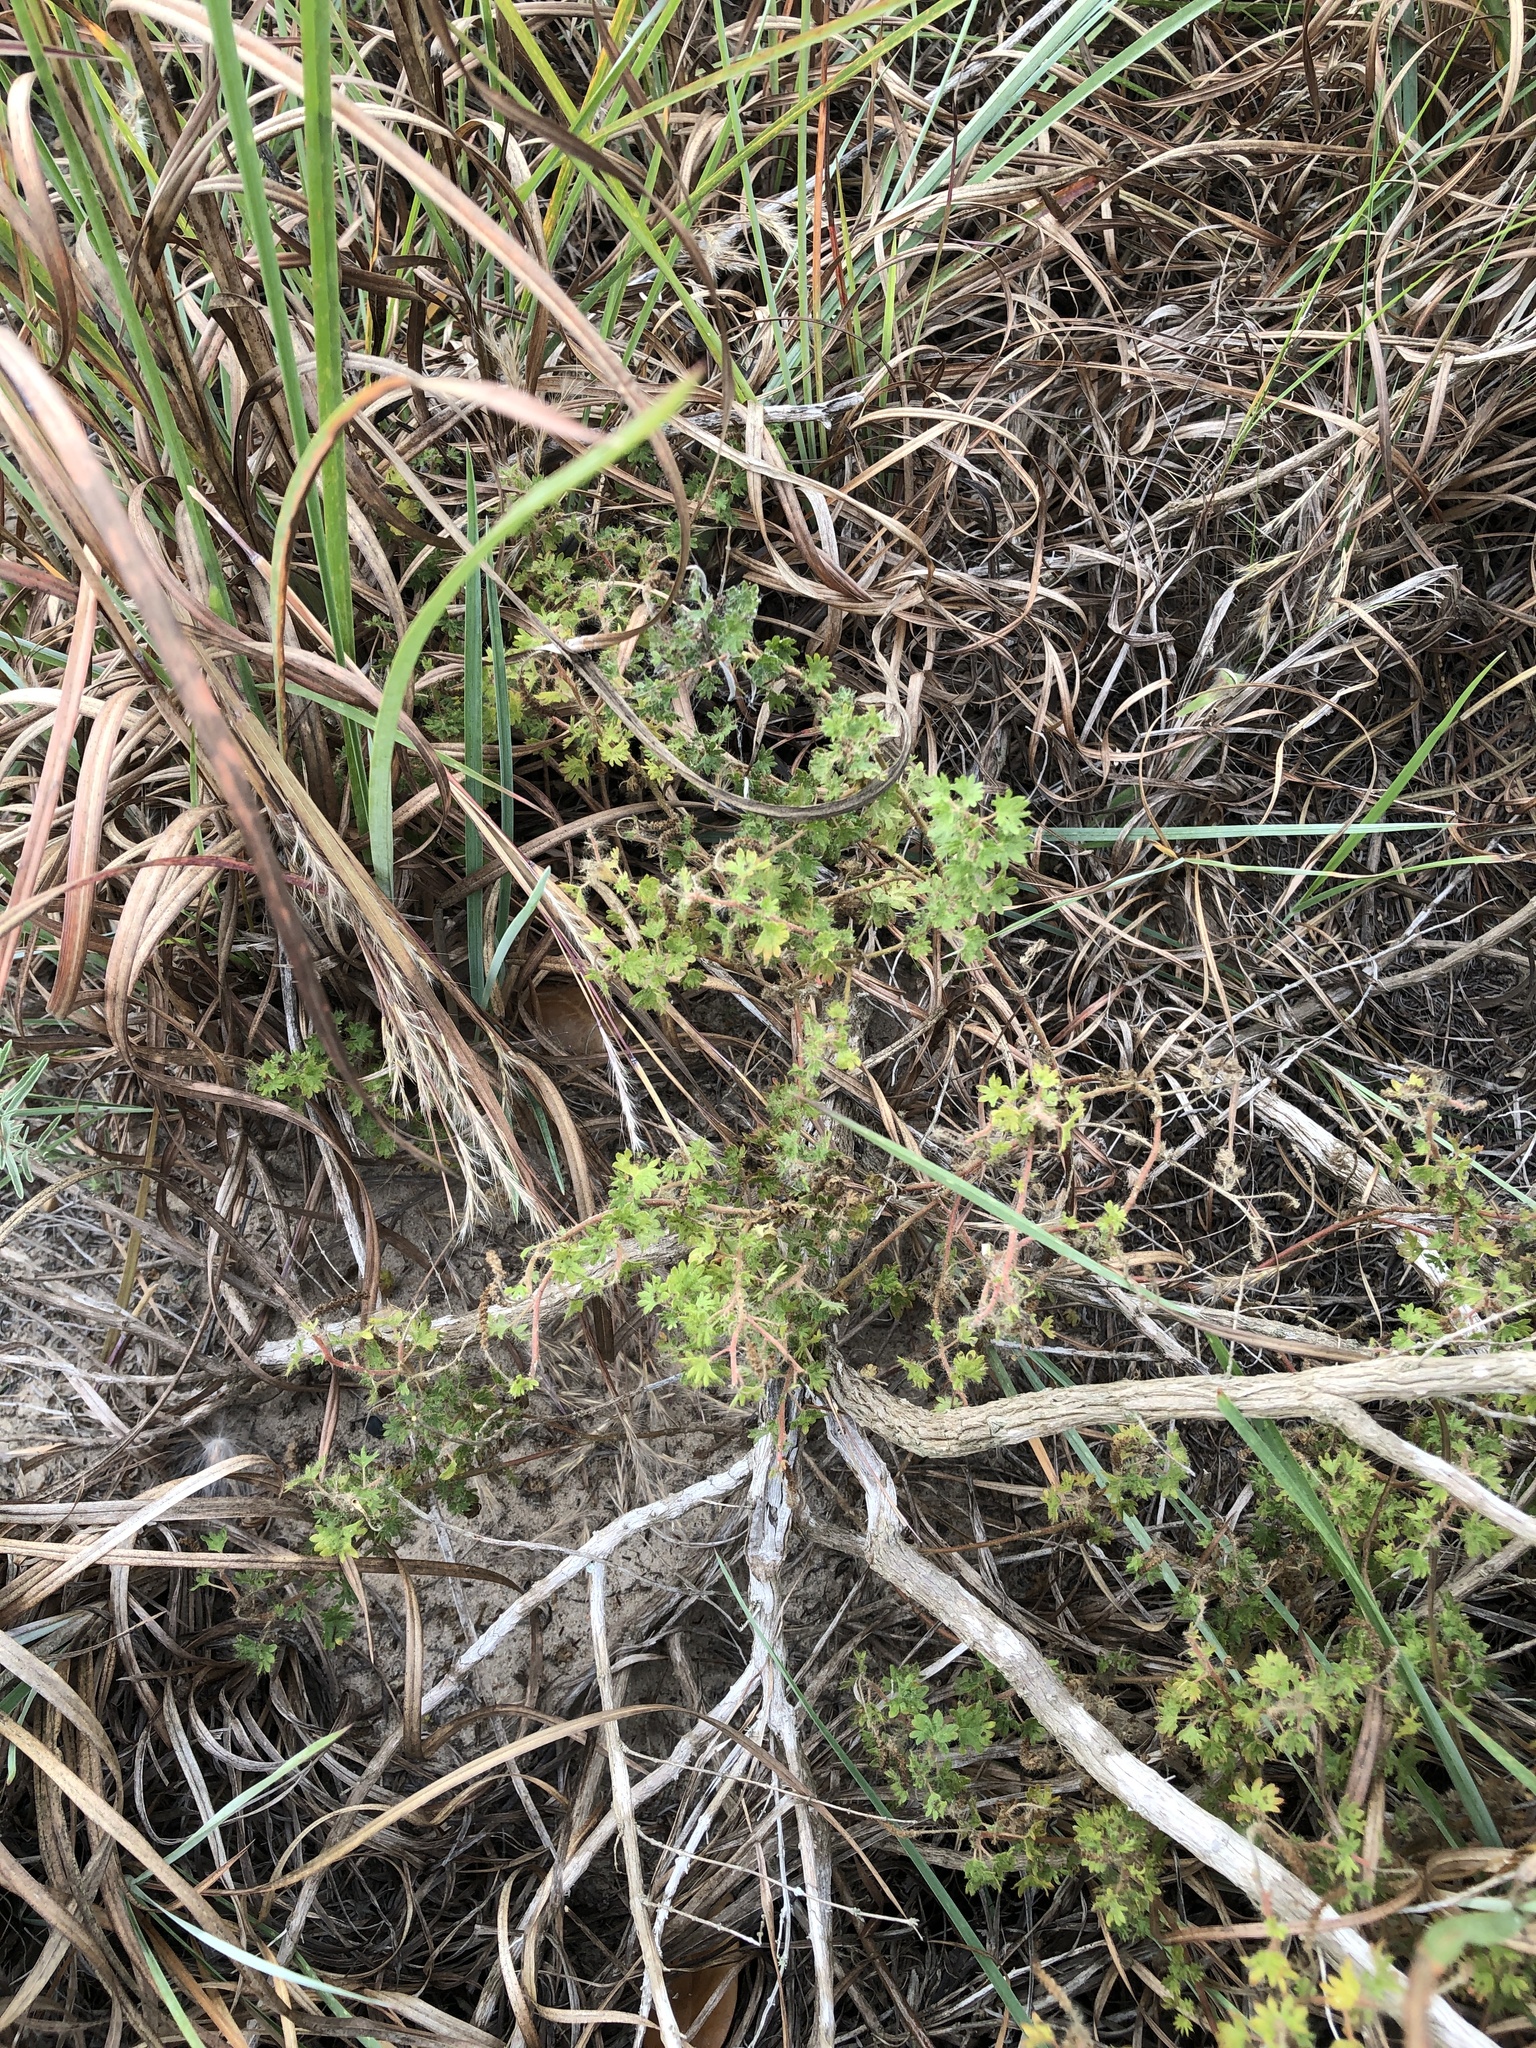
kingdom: Plantae
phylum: Tracheophyta
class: Magnoliopsida
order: Malpighiales
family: Euphorbiaceae
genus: Acalypha
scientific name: Acalypha radians
